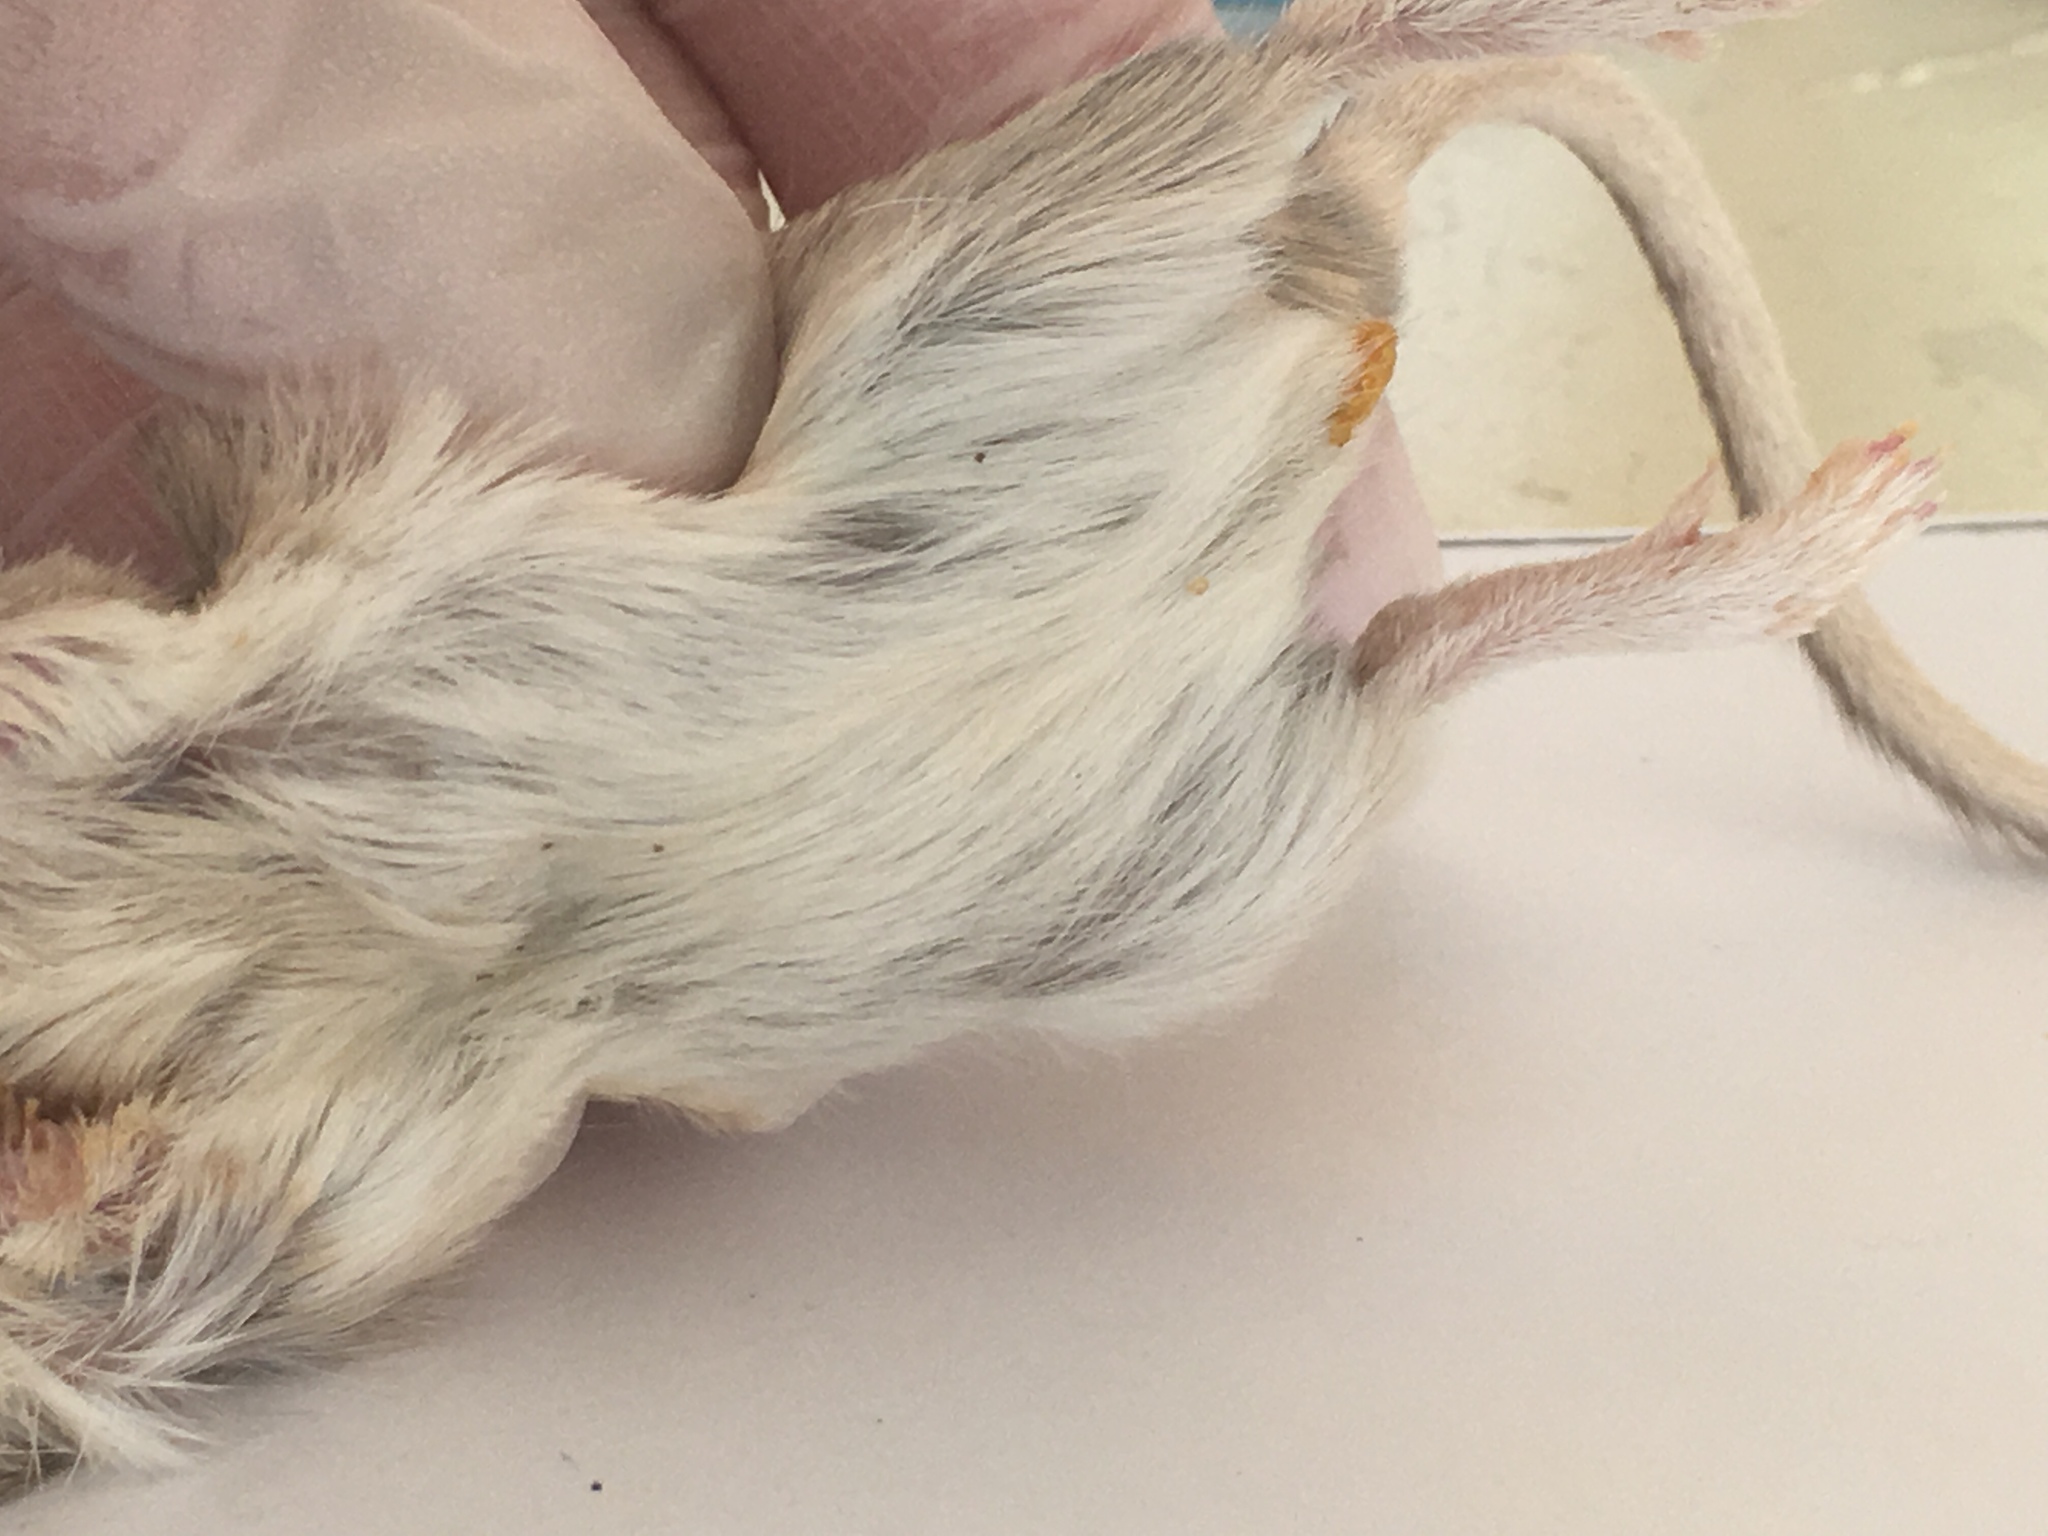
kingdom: Animalia
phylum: Chordata
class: Mammalia
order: Rodentia
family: Heteromyidae
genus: Chaetodipus
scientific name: Chaetodipus formosus
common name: Long-tailed pocket mouse
